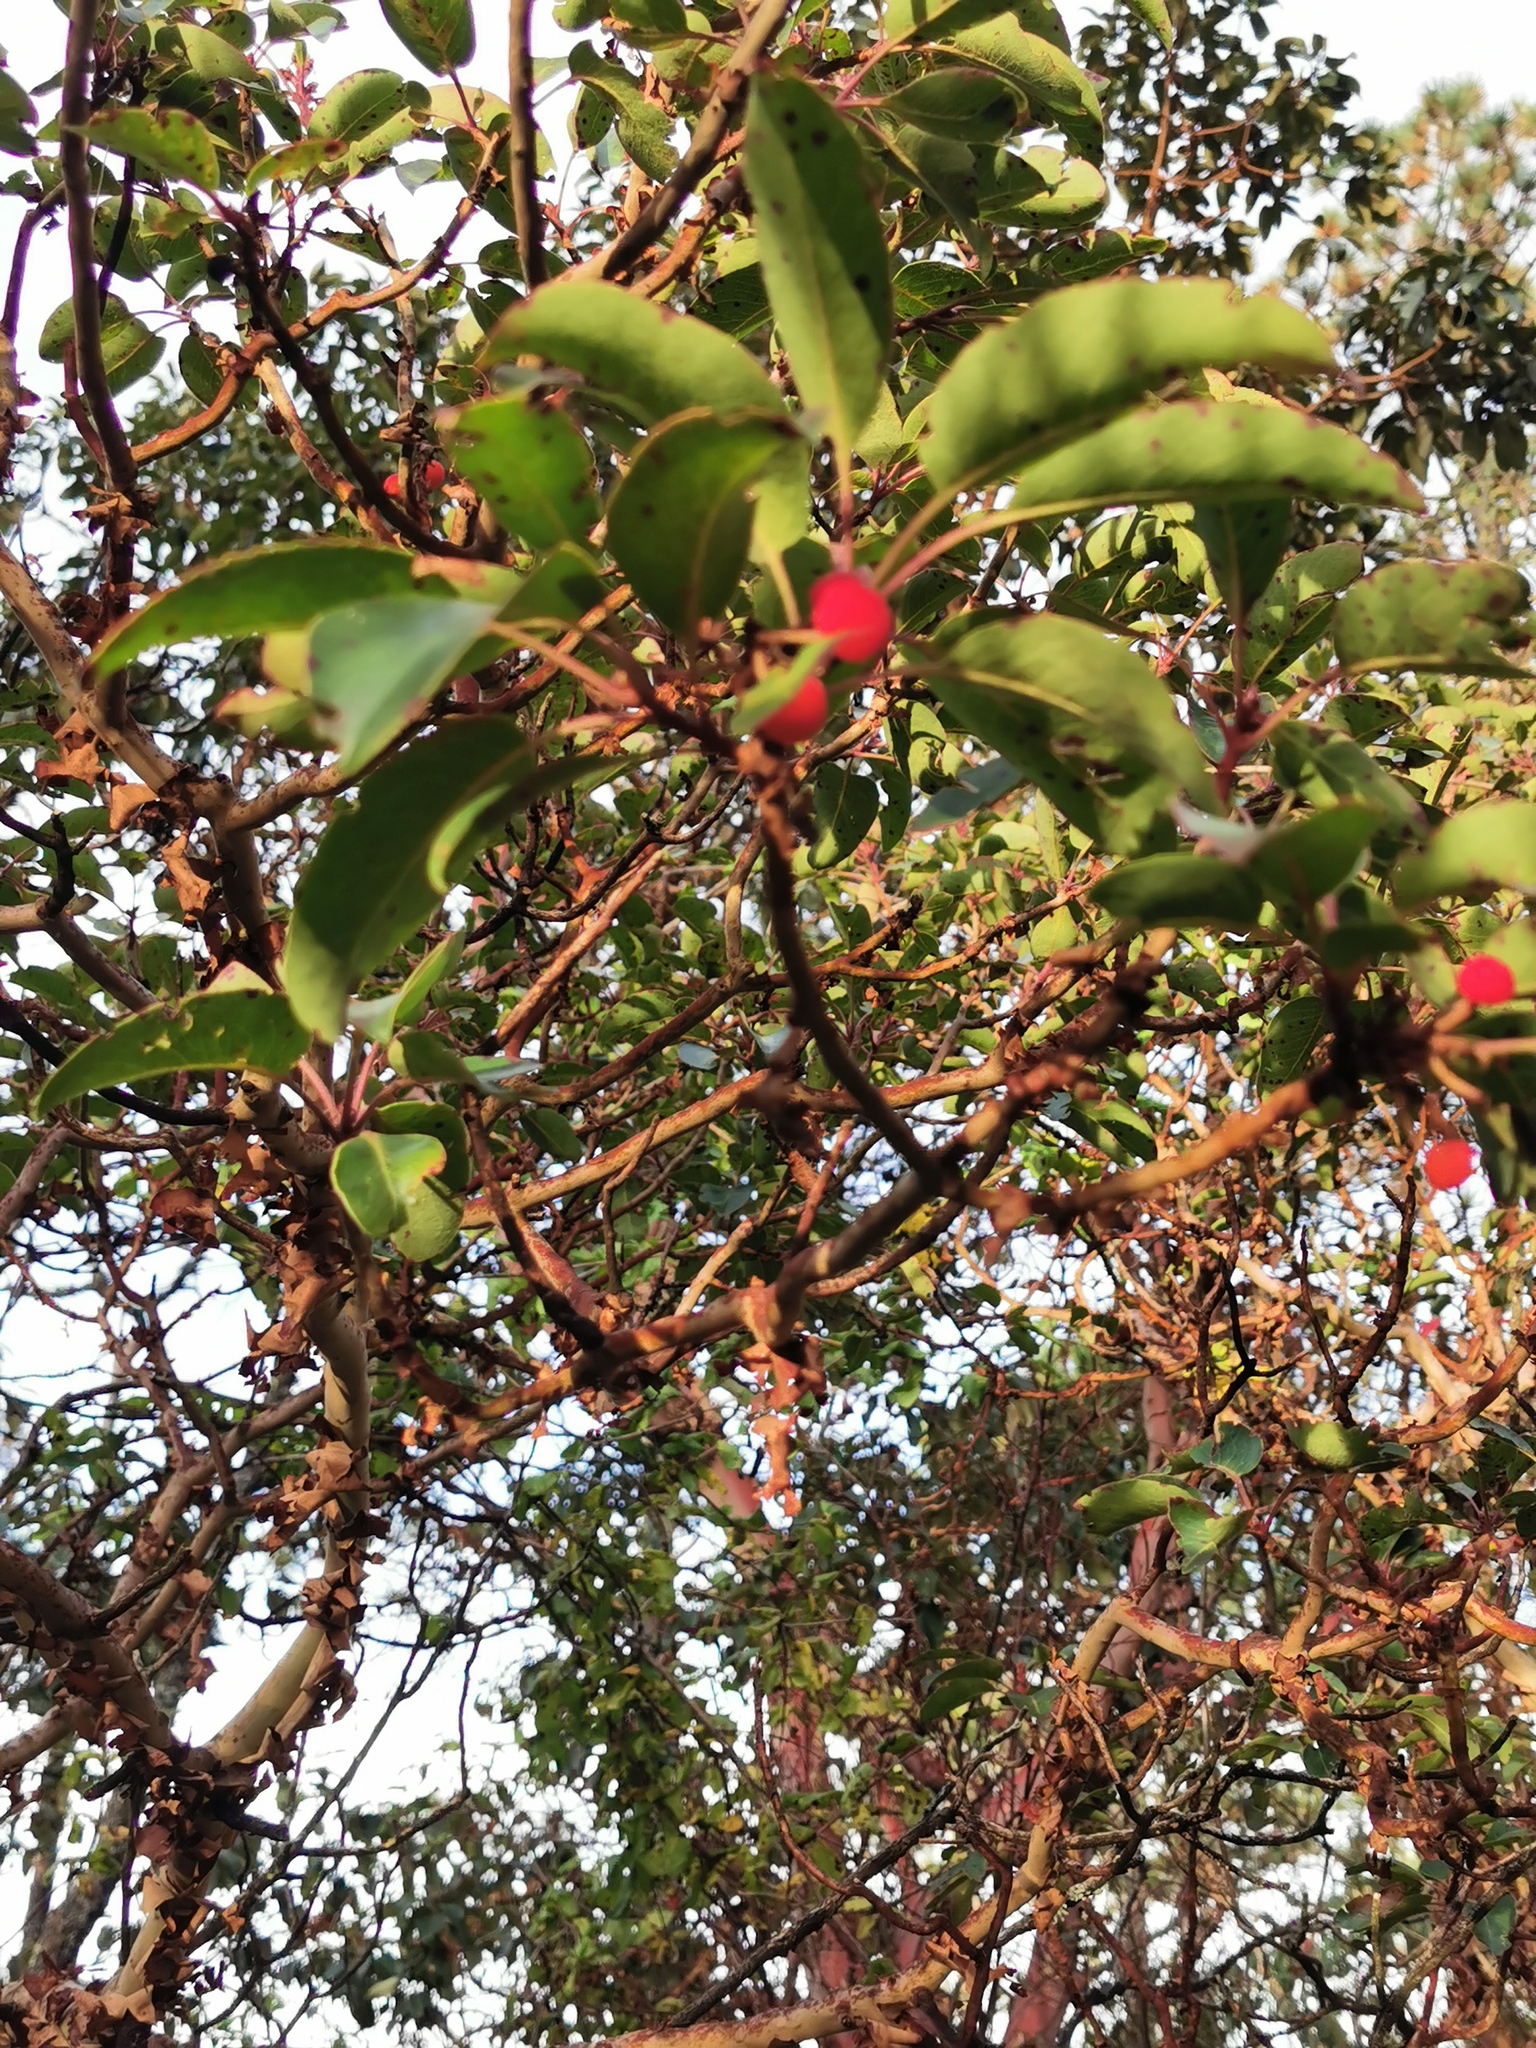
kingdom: Plantae
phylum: Tracheophyta
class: Magnoliopsida
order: Ericales
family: Ericaceae
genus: Arbutus
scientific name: Arbutus xalapensis
